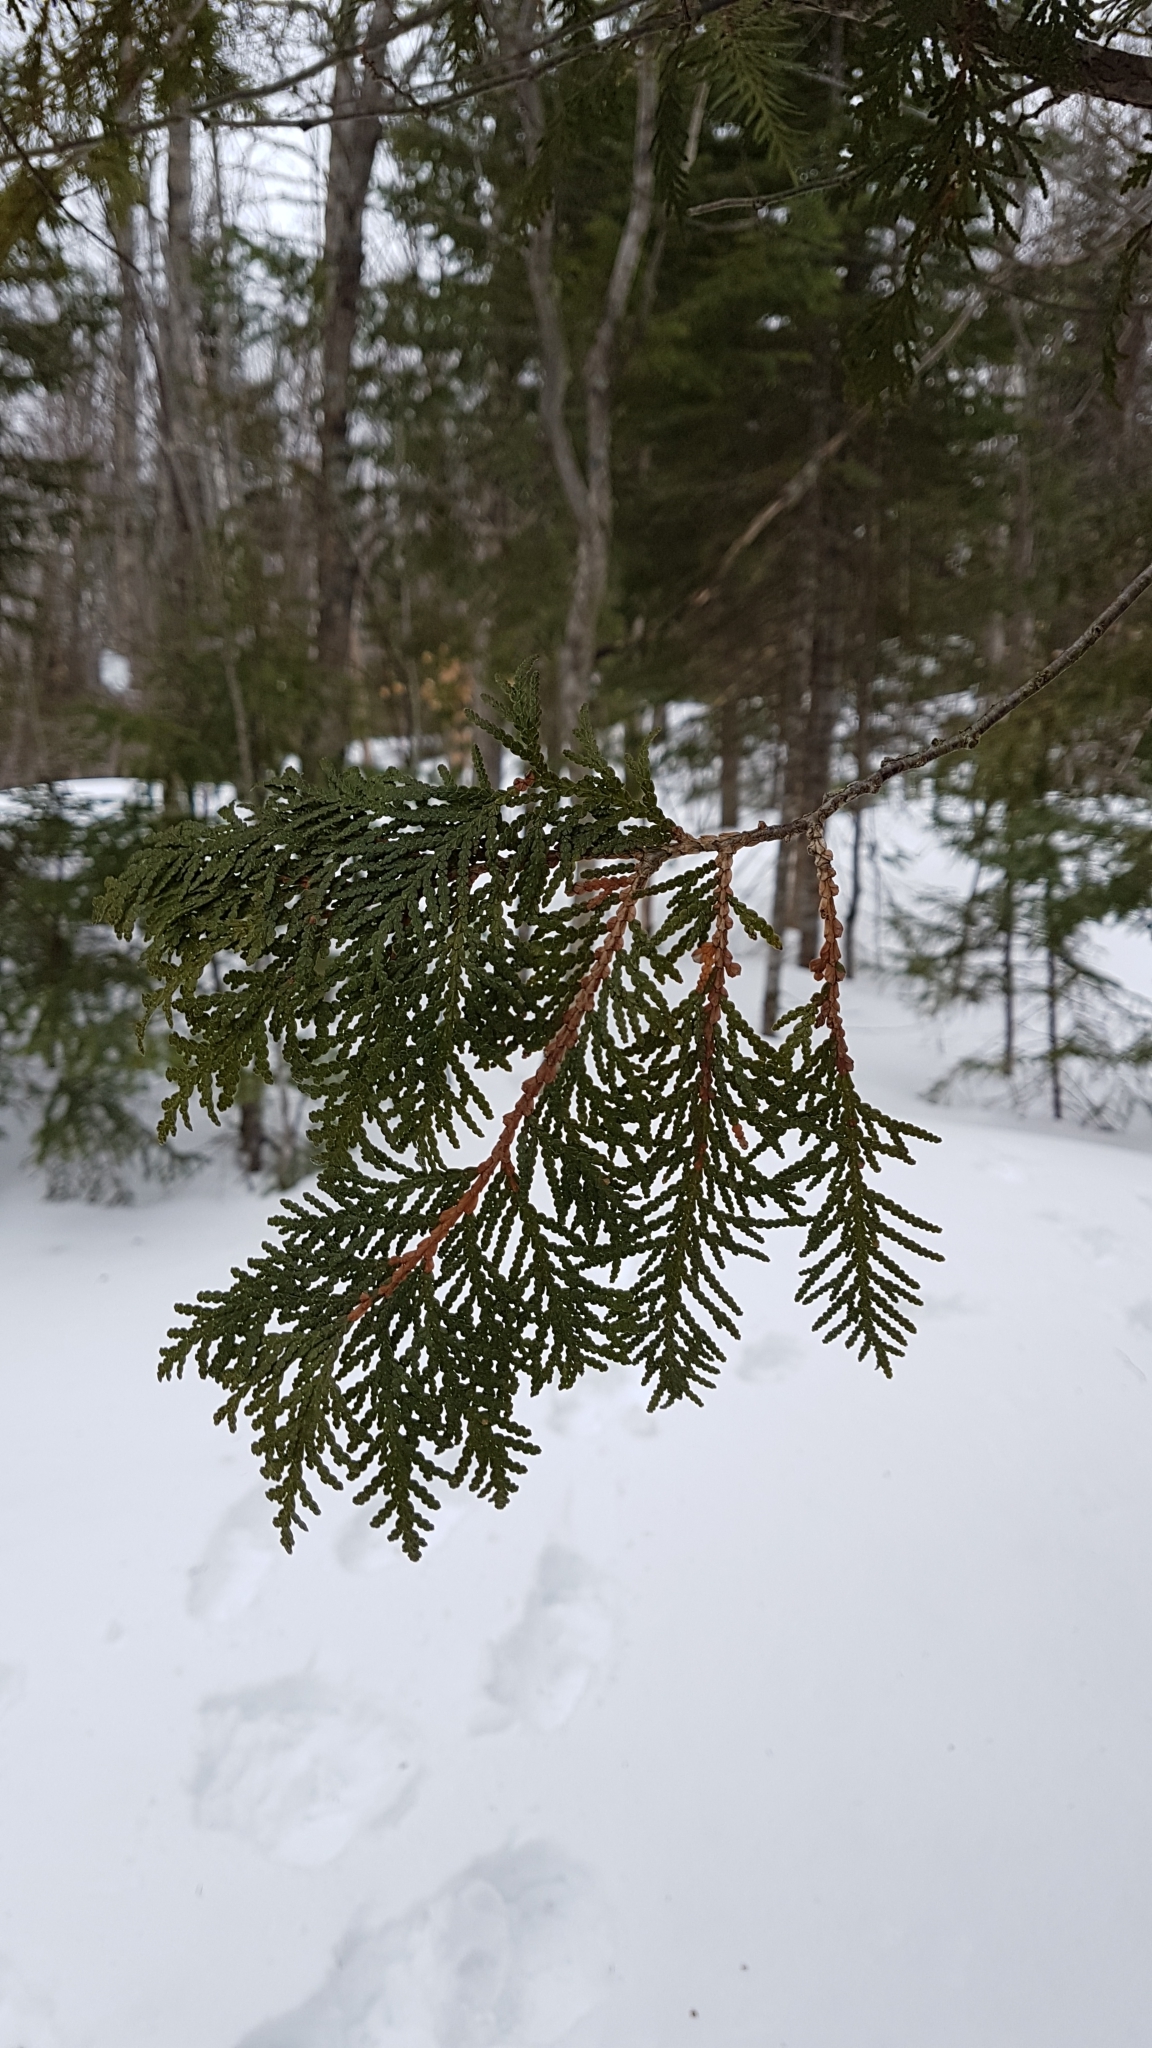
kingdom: Plantae
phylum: Tracheophyta
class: Pinopsida
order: Pinales
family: Cupressaceae
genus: Thuja
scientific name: Thuja occidentalis
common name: Northern white-cedar
